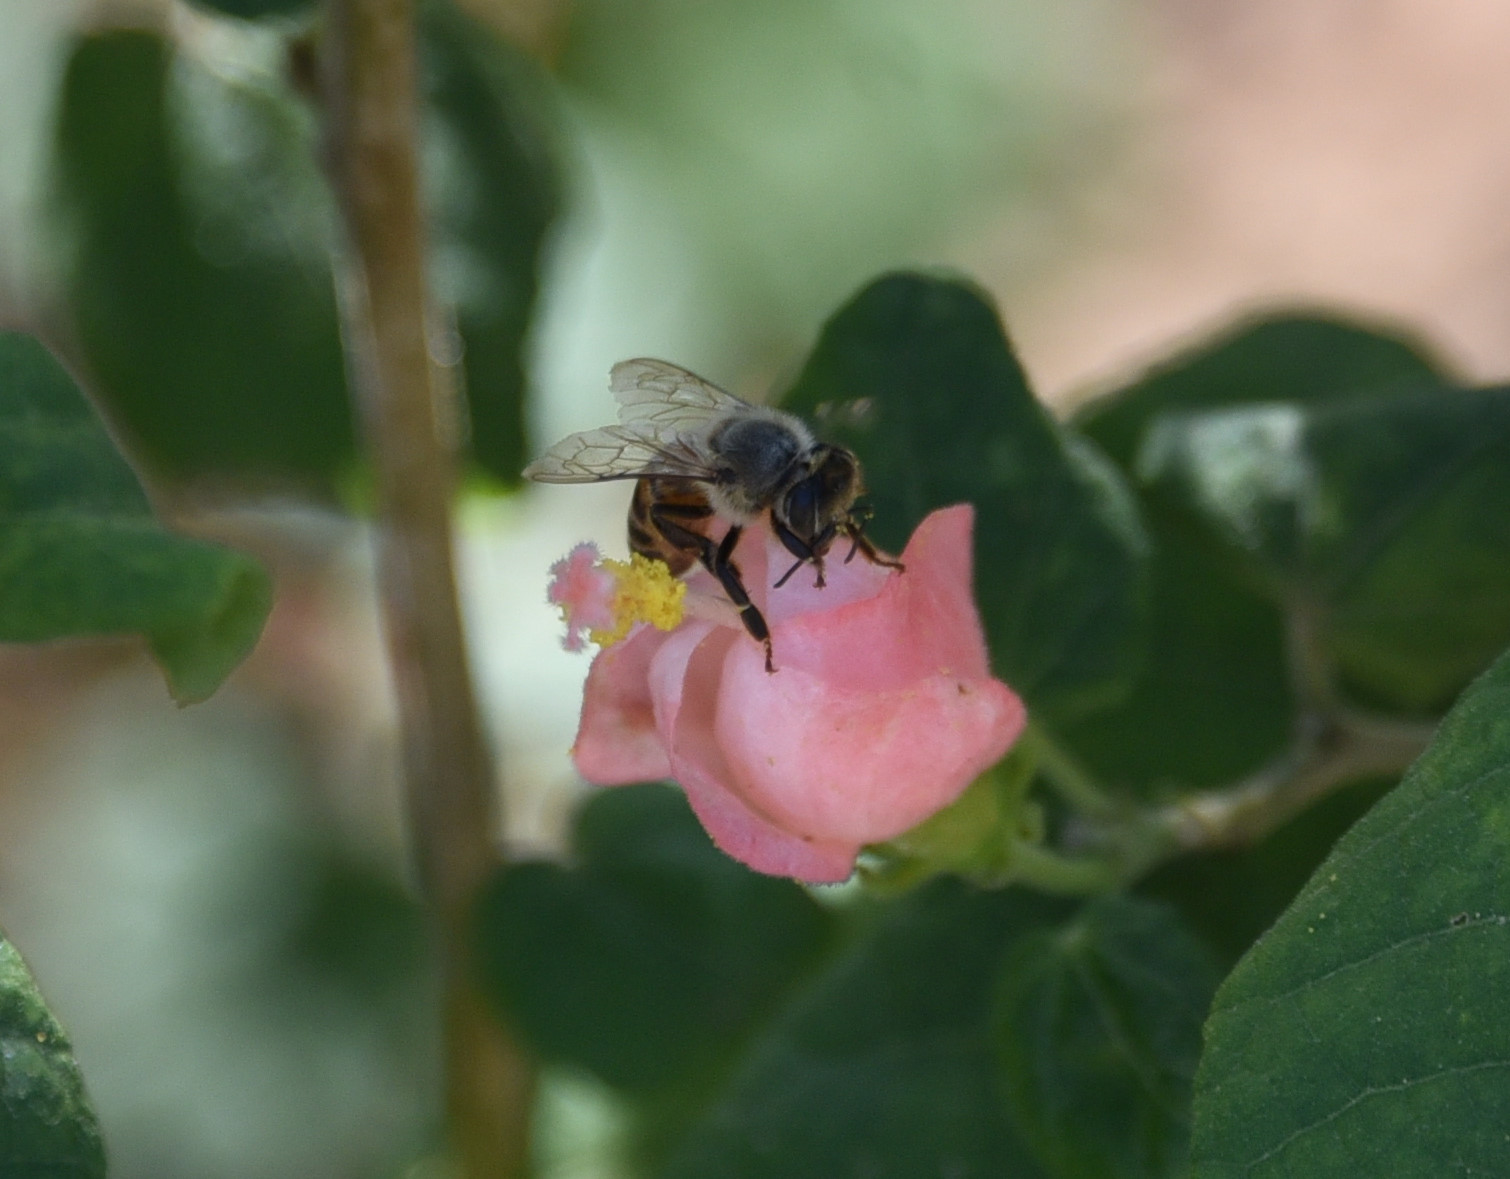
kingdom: Animalia
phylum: Arthropoda
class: Insecta
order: Hymenoptera
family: Apidae
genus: Apis
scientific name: Apis mellifera
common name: Honey bee
